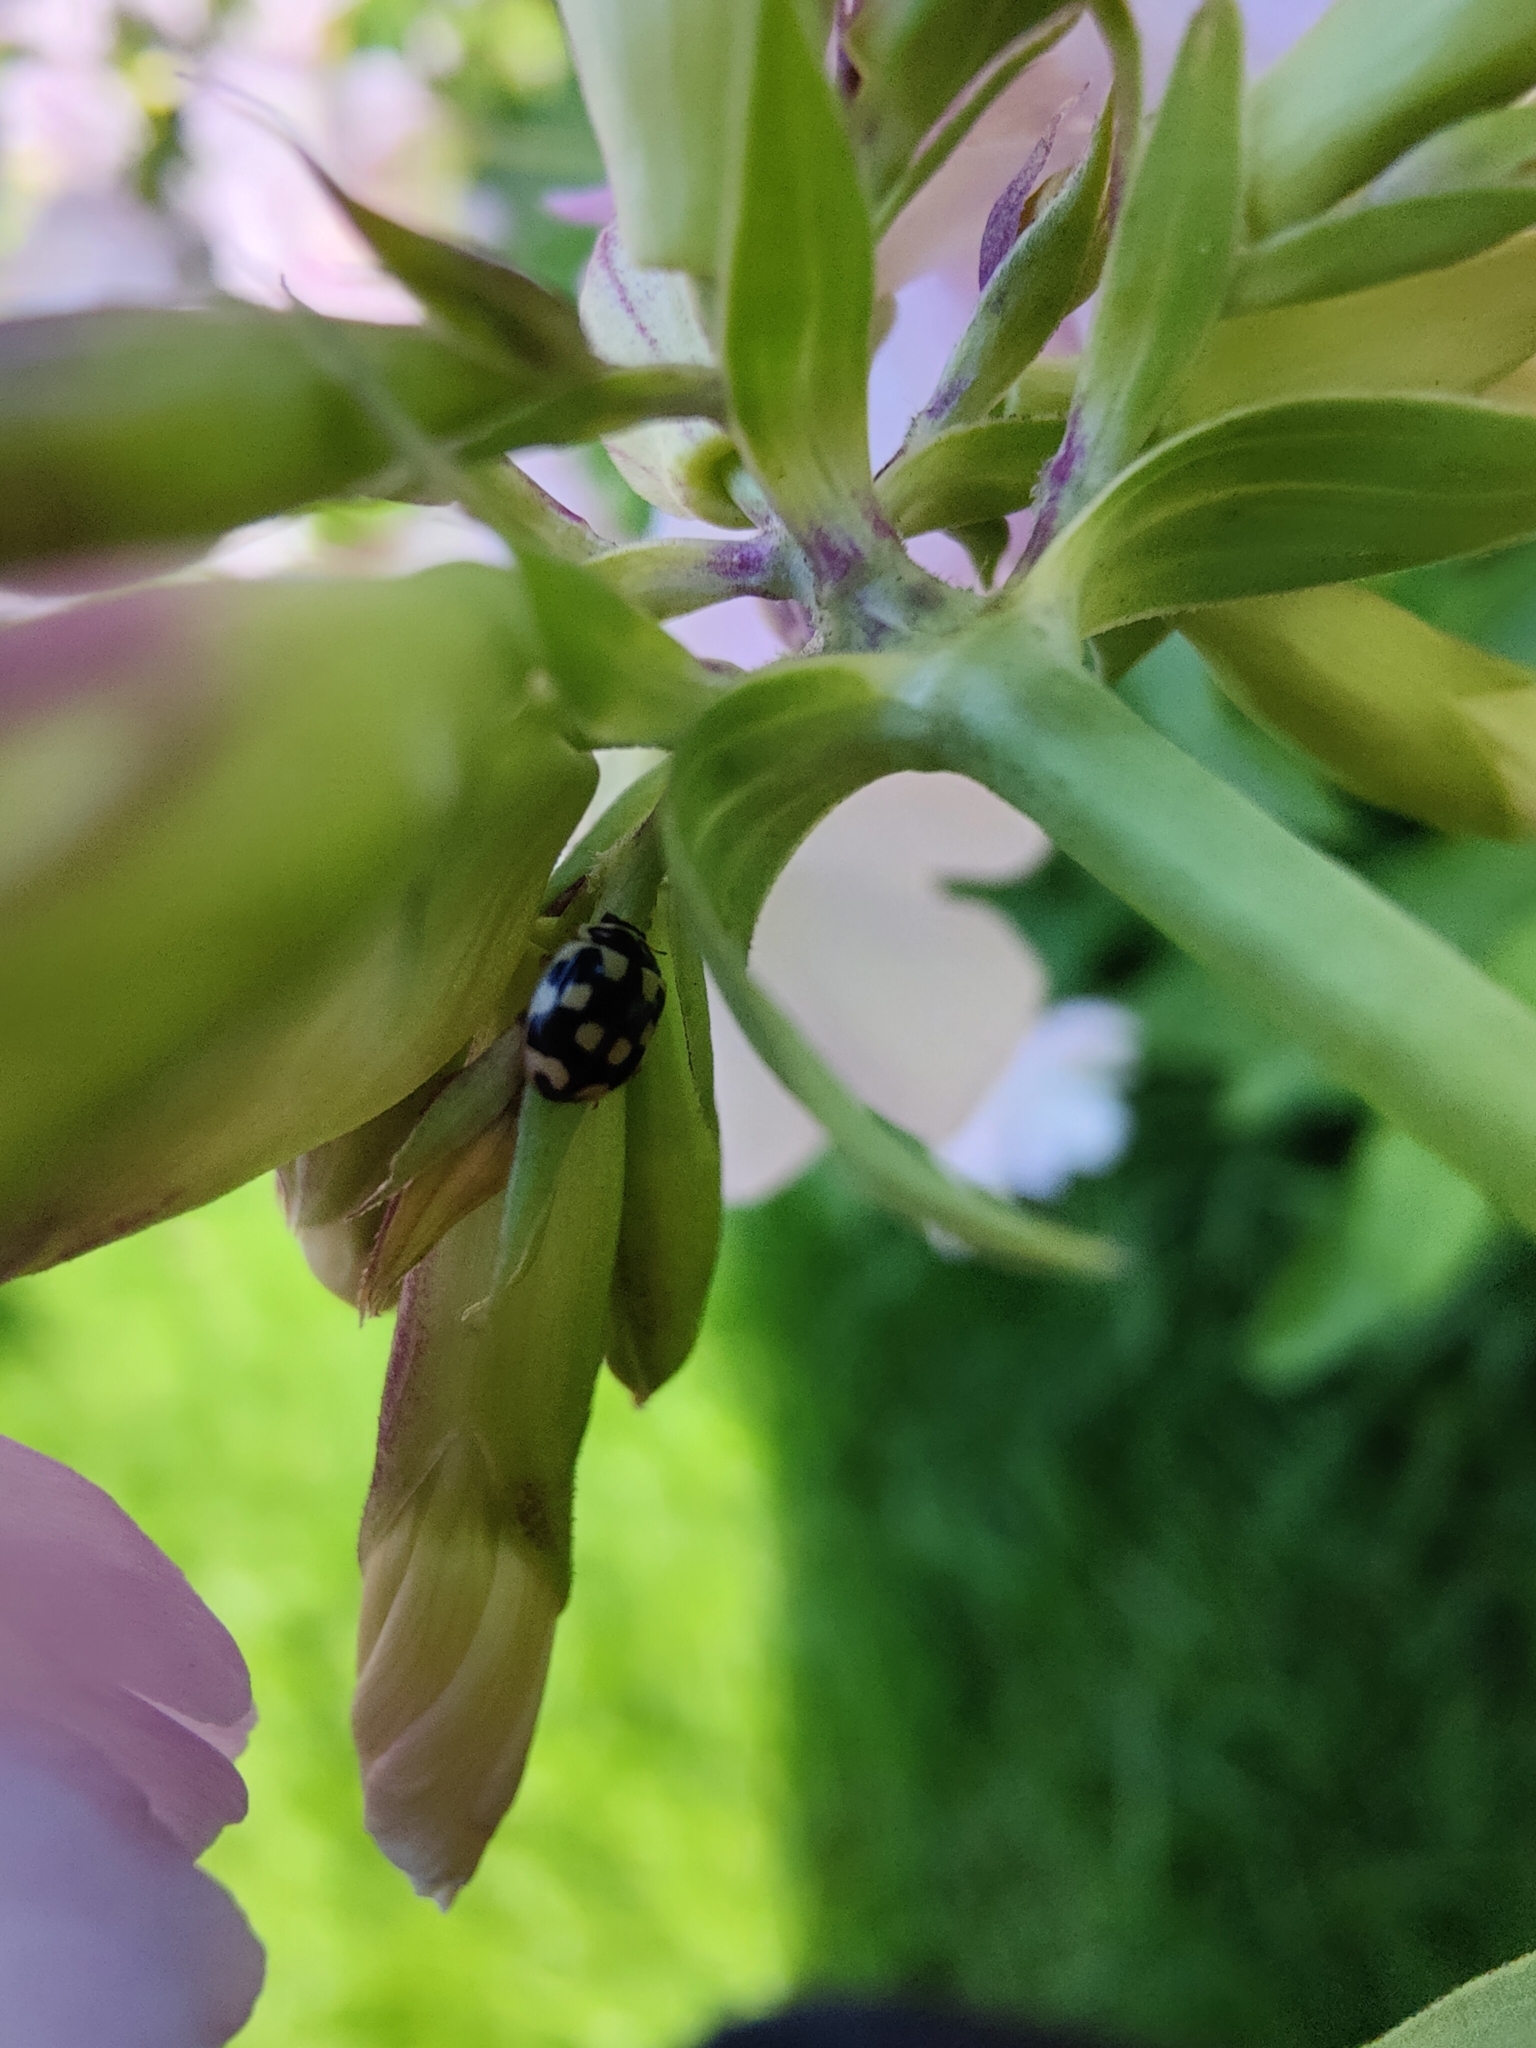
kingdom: Animalia
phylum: Arthropoda
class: Insecta
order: Coleoptera
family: Coccinellidae
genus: Propylaea
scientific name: Propylaea quatuordecimpunctata
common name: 14-spotted ladybird beetle
